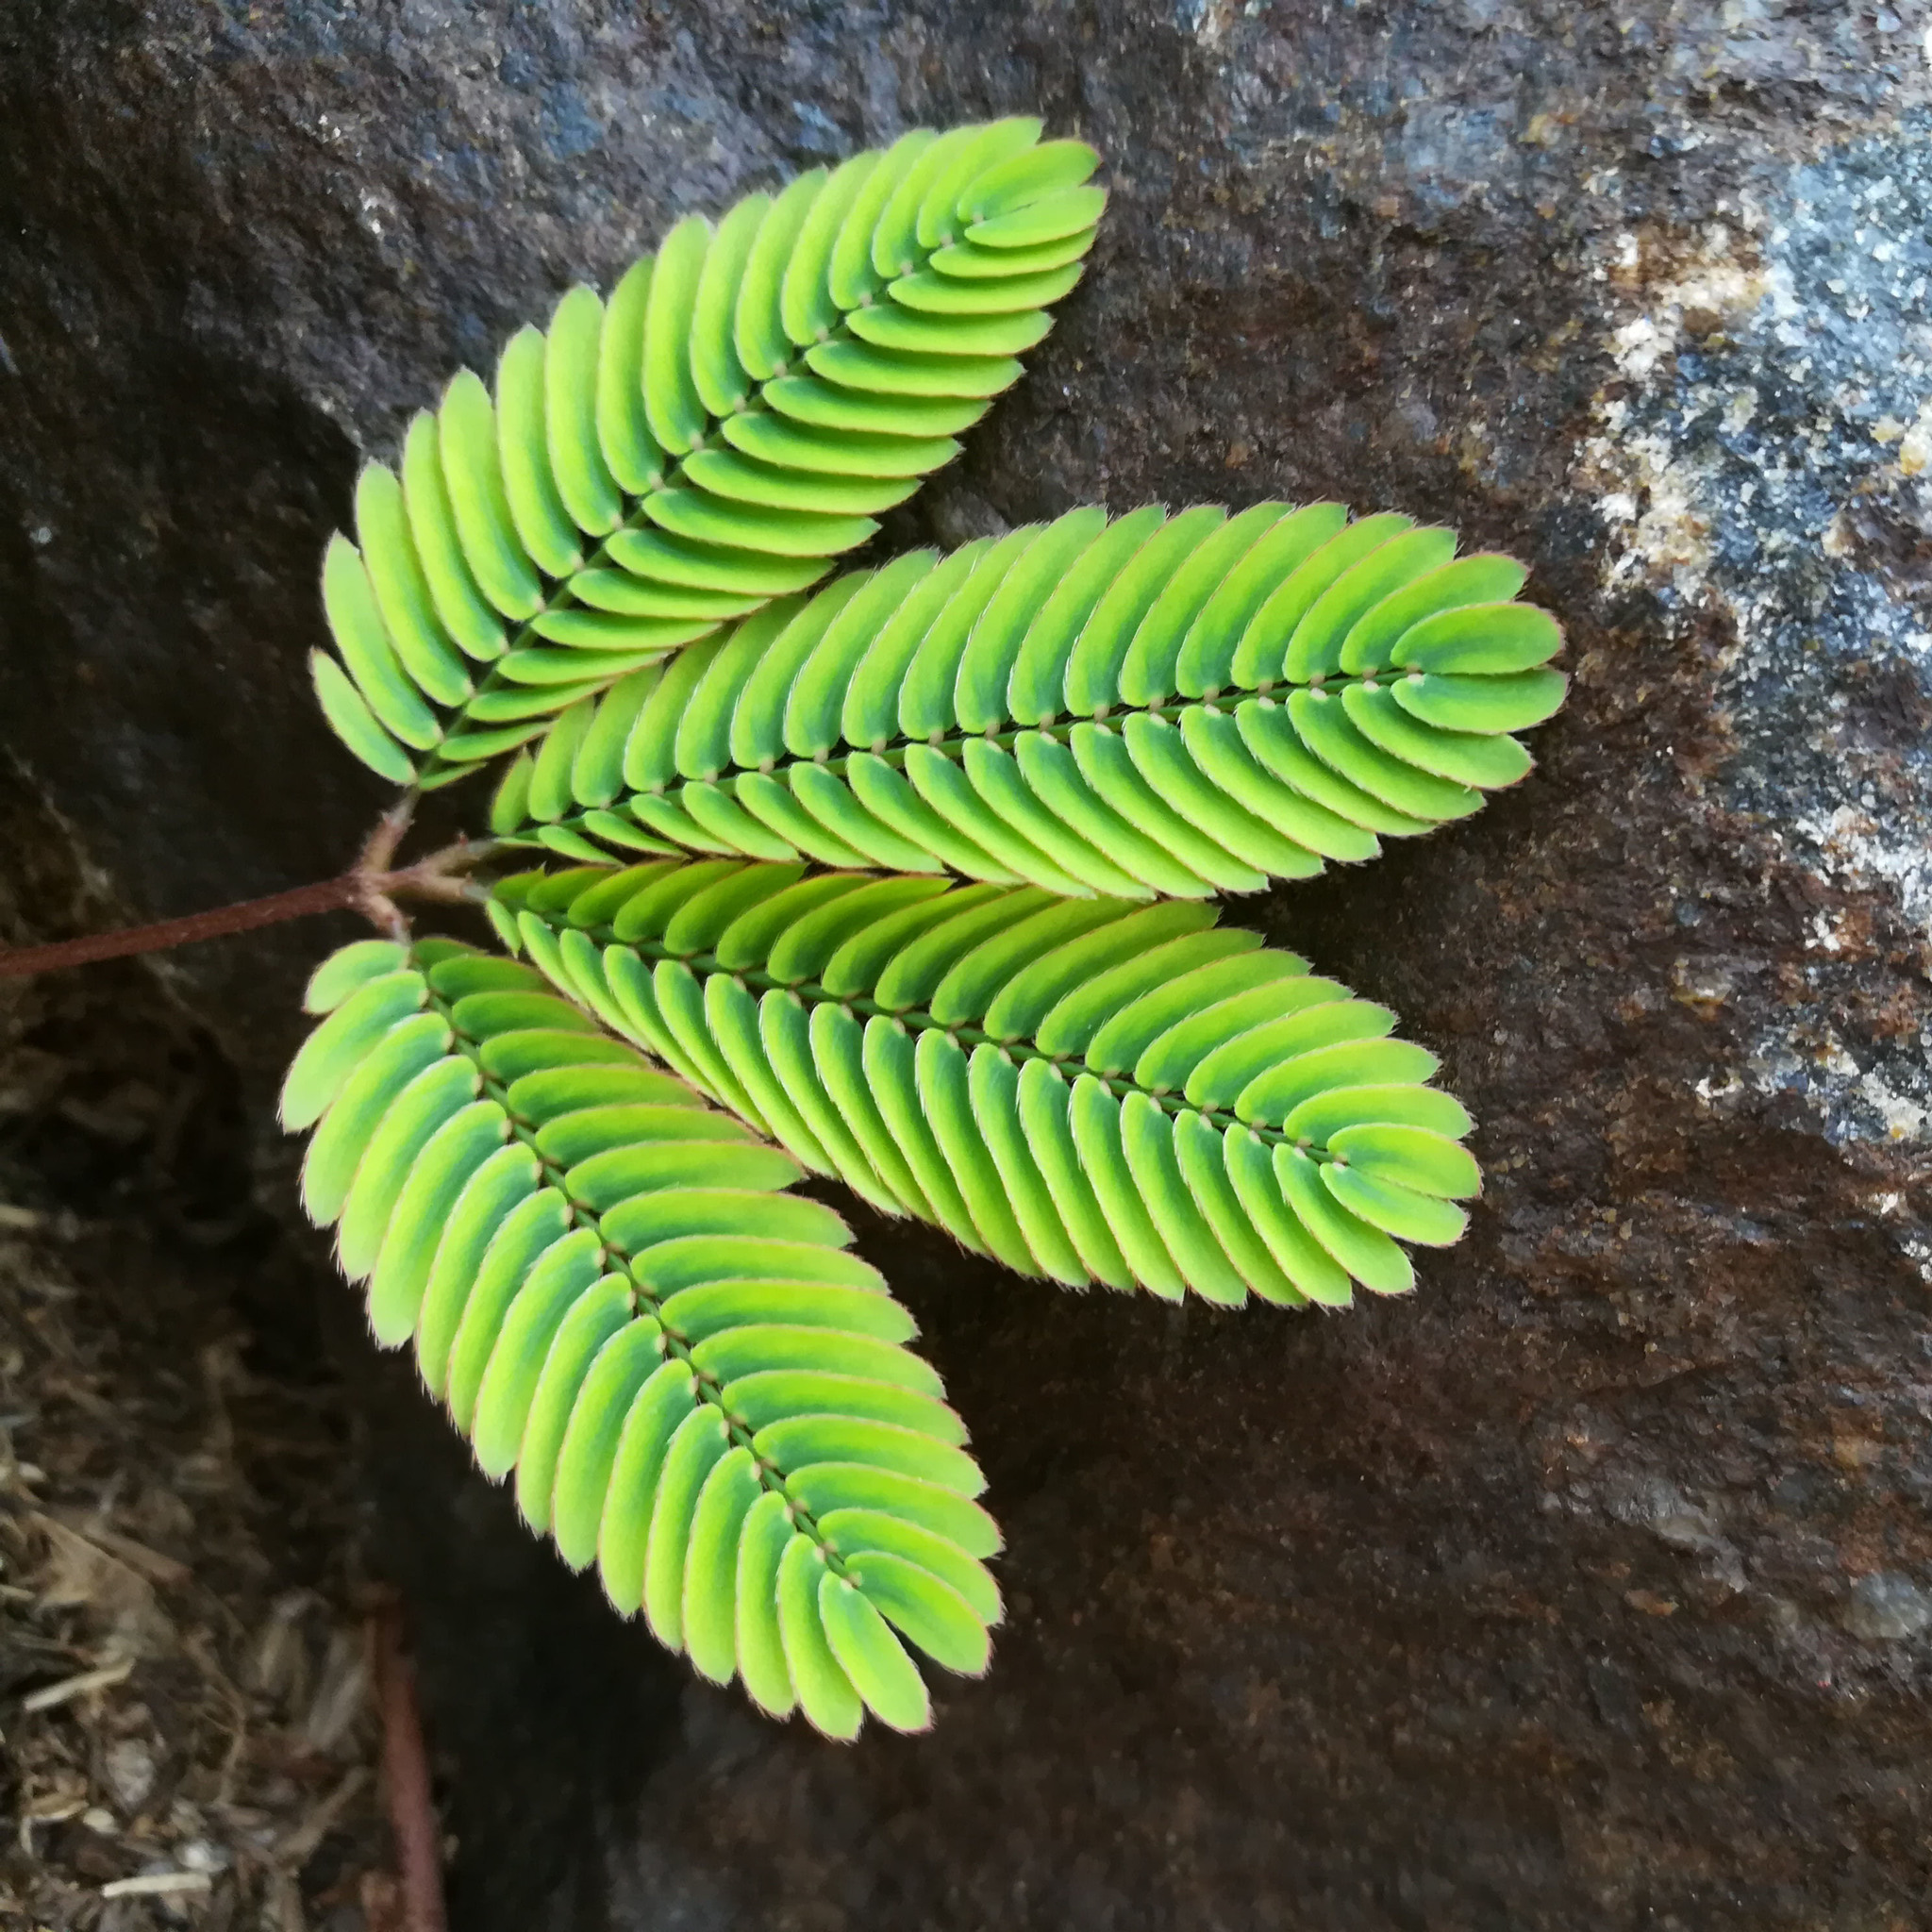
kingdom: Plantae
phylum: Tracheophyta
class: Magnoliopsida
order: Fabales
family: Fabaceae
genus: Mimosa
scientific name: Mimosa pudica
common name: Sensitive plant
